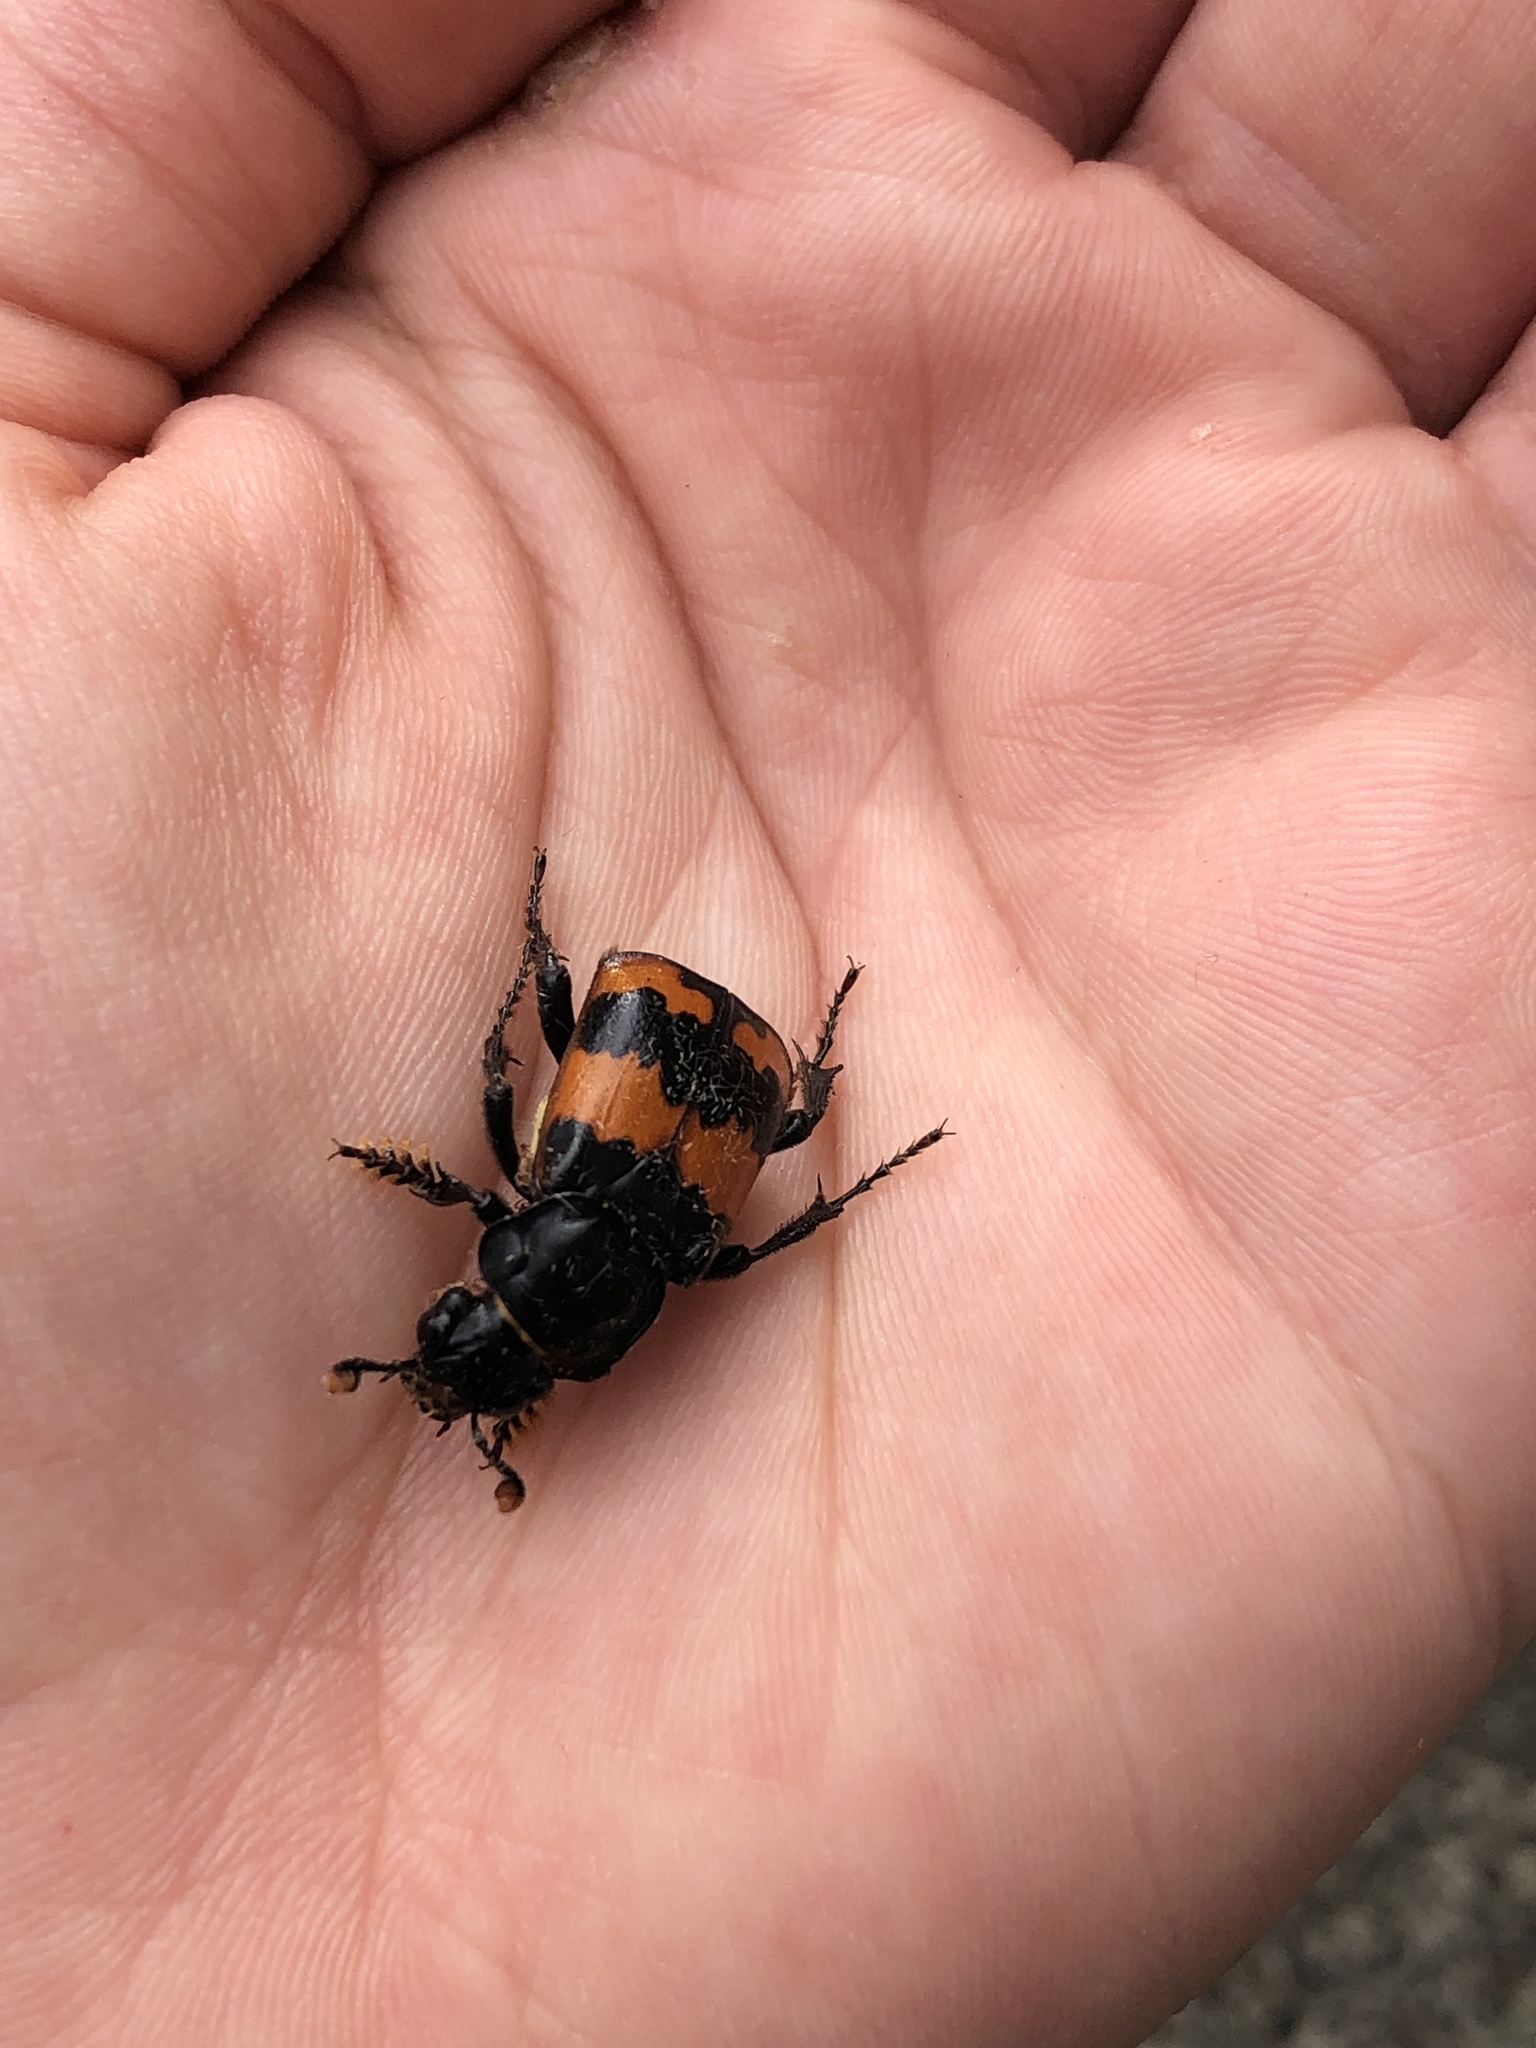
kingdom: Animalia
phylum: Arthropoda
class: Insecta
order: Coleoptera
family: Staphylinidae
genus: Nicrophorus
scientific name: Nicrophorus investigator
